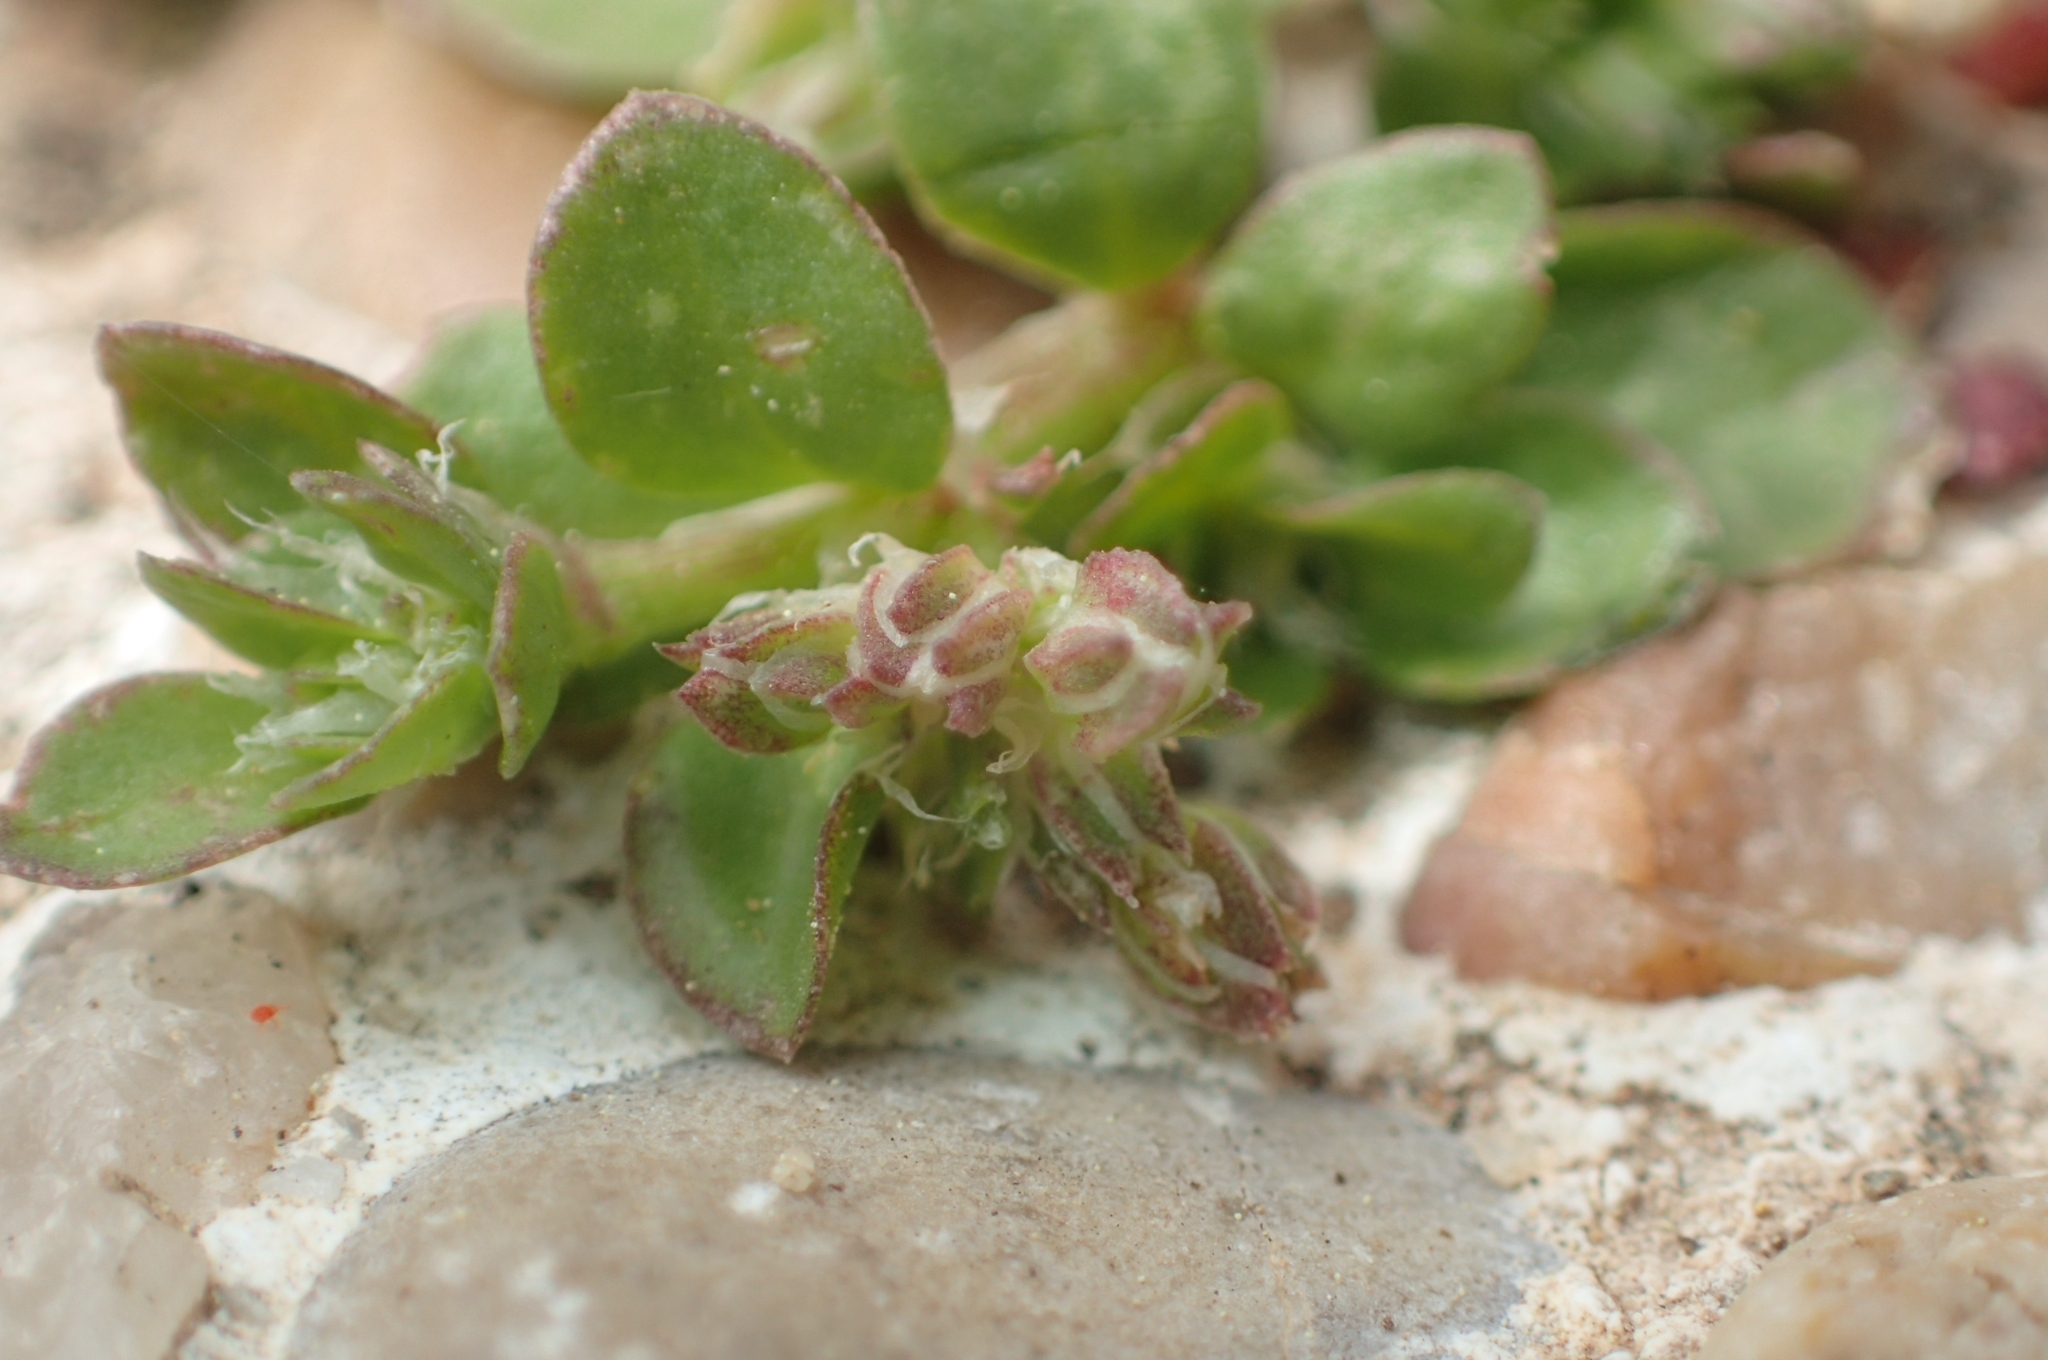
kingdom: Plantae
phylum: Tracheophyta
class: Magnoliopsida
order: Caryophyllales
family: Caryophyllaceae
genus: Polycarpon
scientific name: Polycarpon tetraphyllum
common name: Four-leaved all-seed
